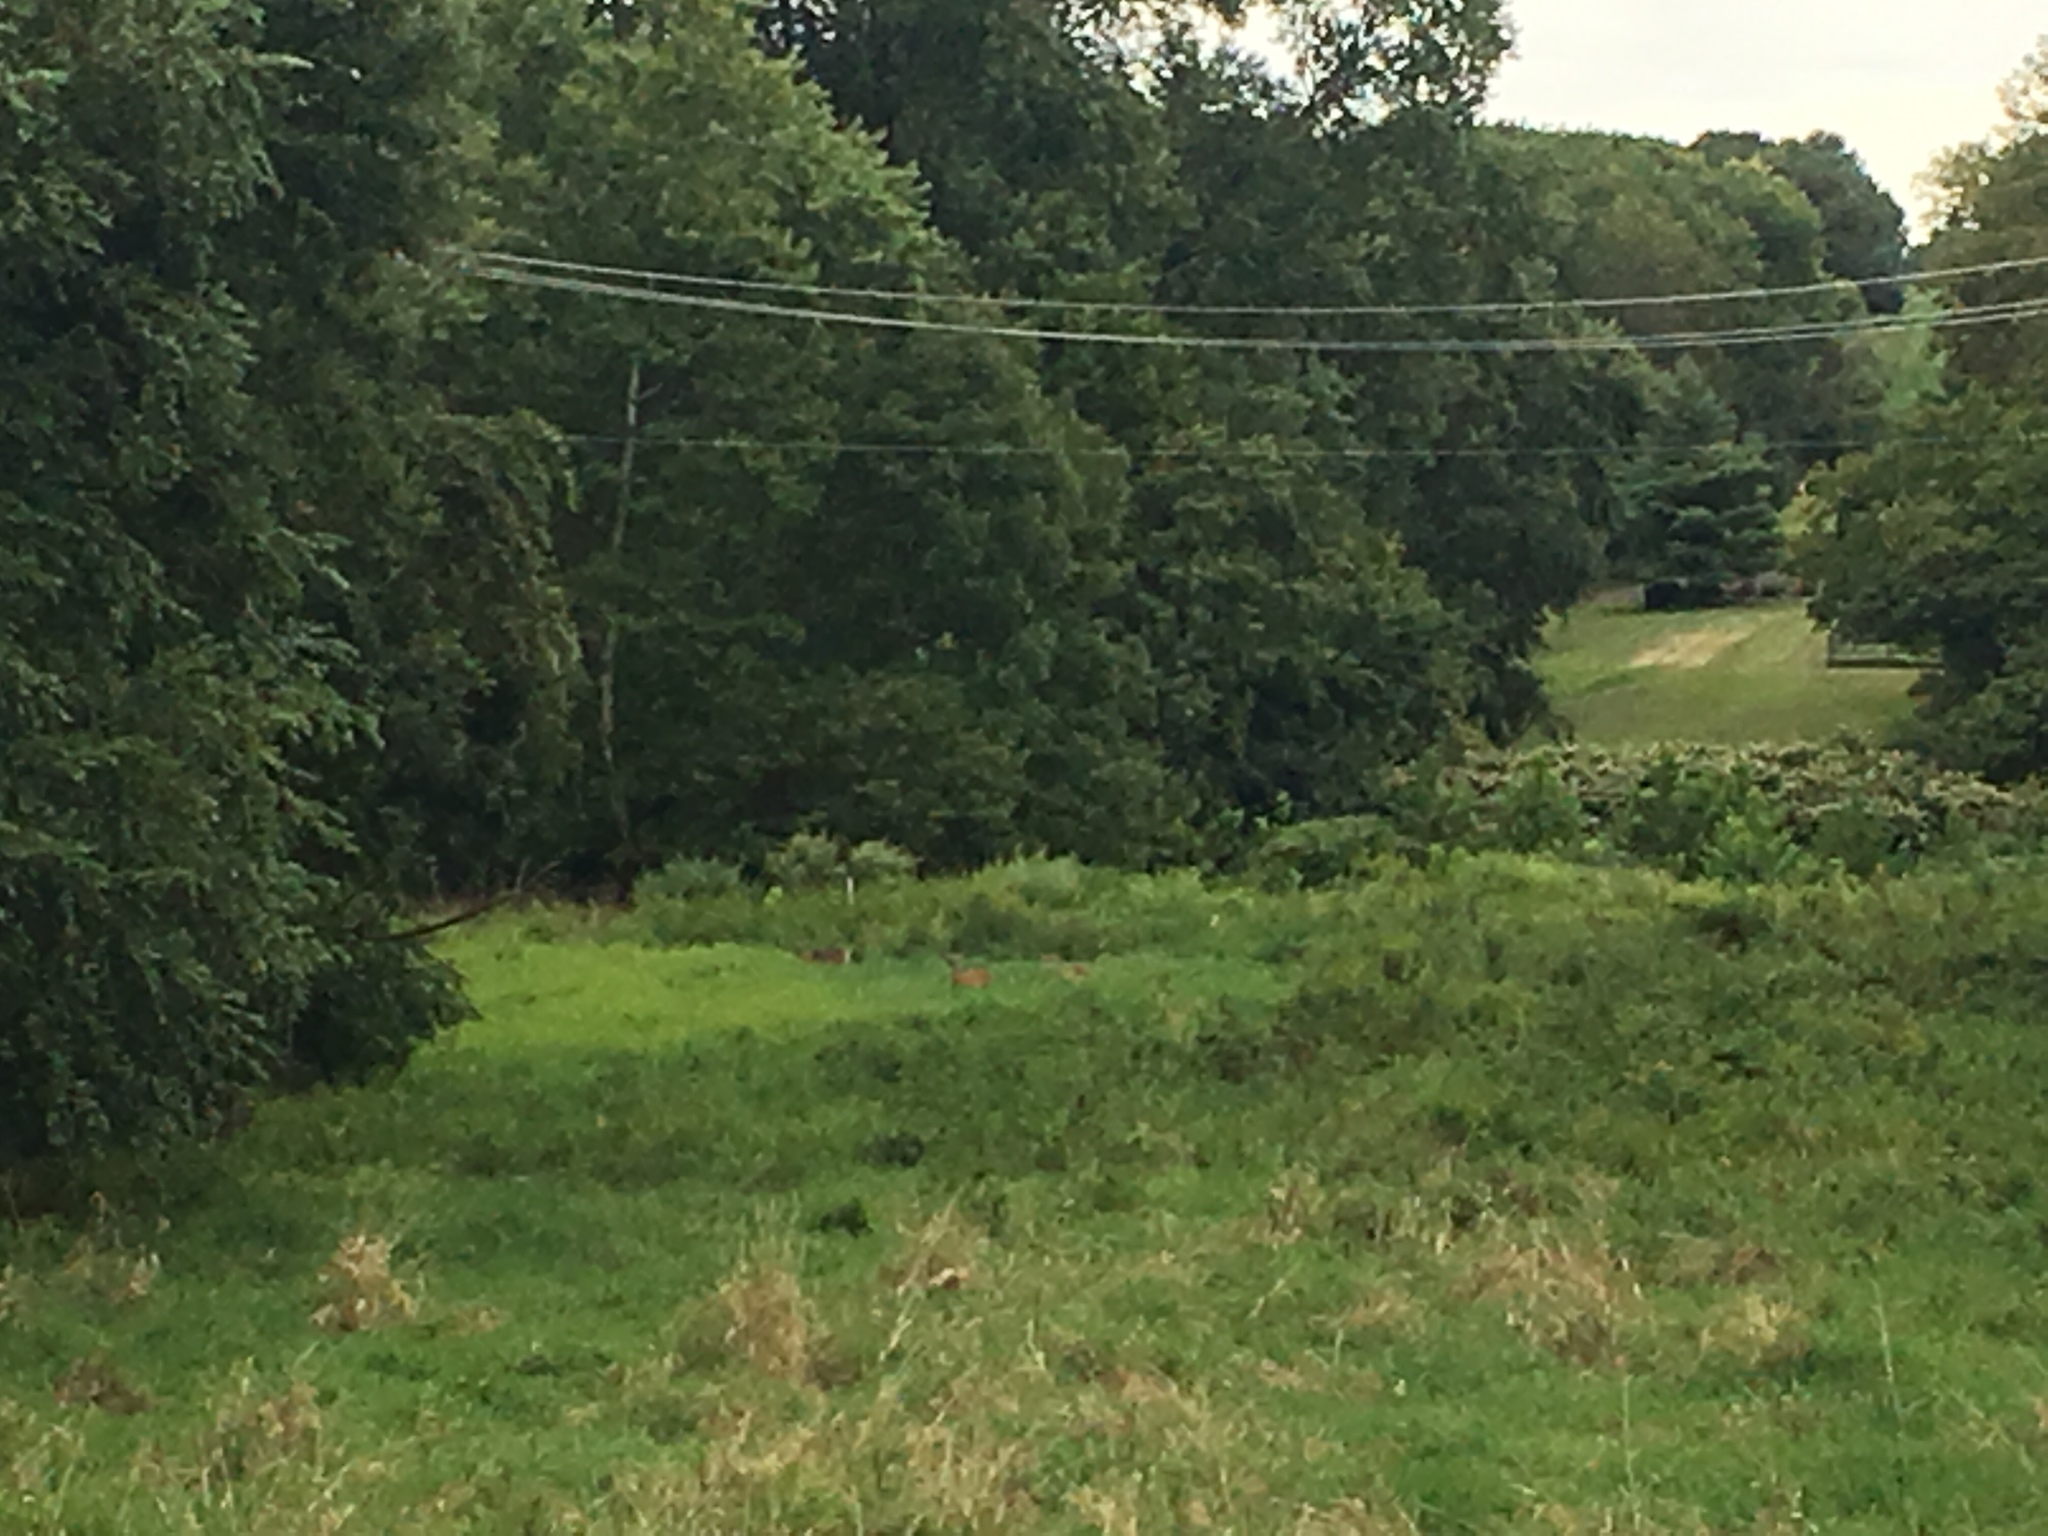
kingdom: Animalia
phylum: Chordata
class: Mammalia
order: Artiodactyla
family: Cervidae
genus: Odocoileus
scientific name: Odocoileus virginianus
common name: White-tailed deer
